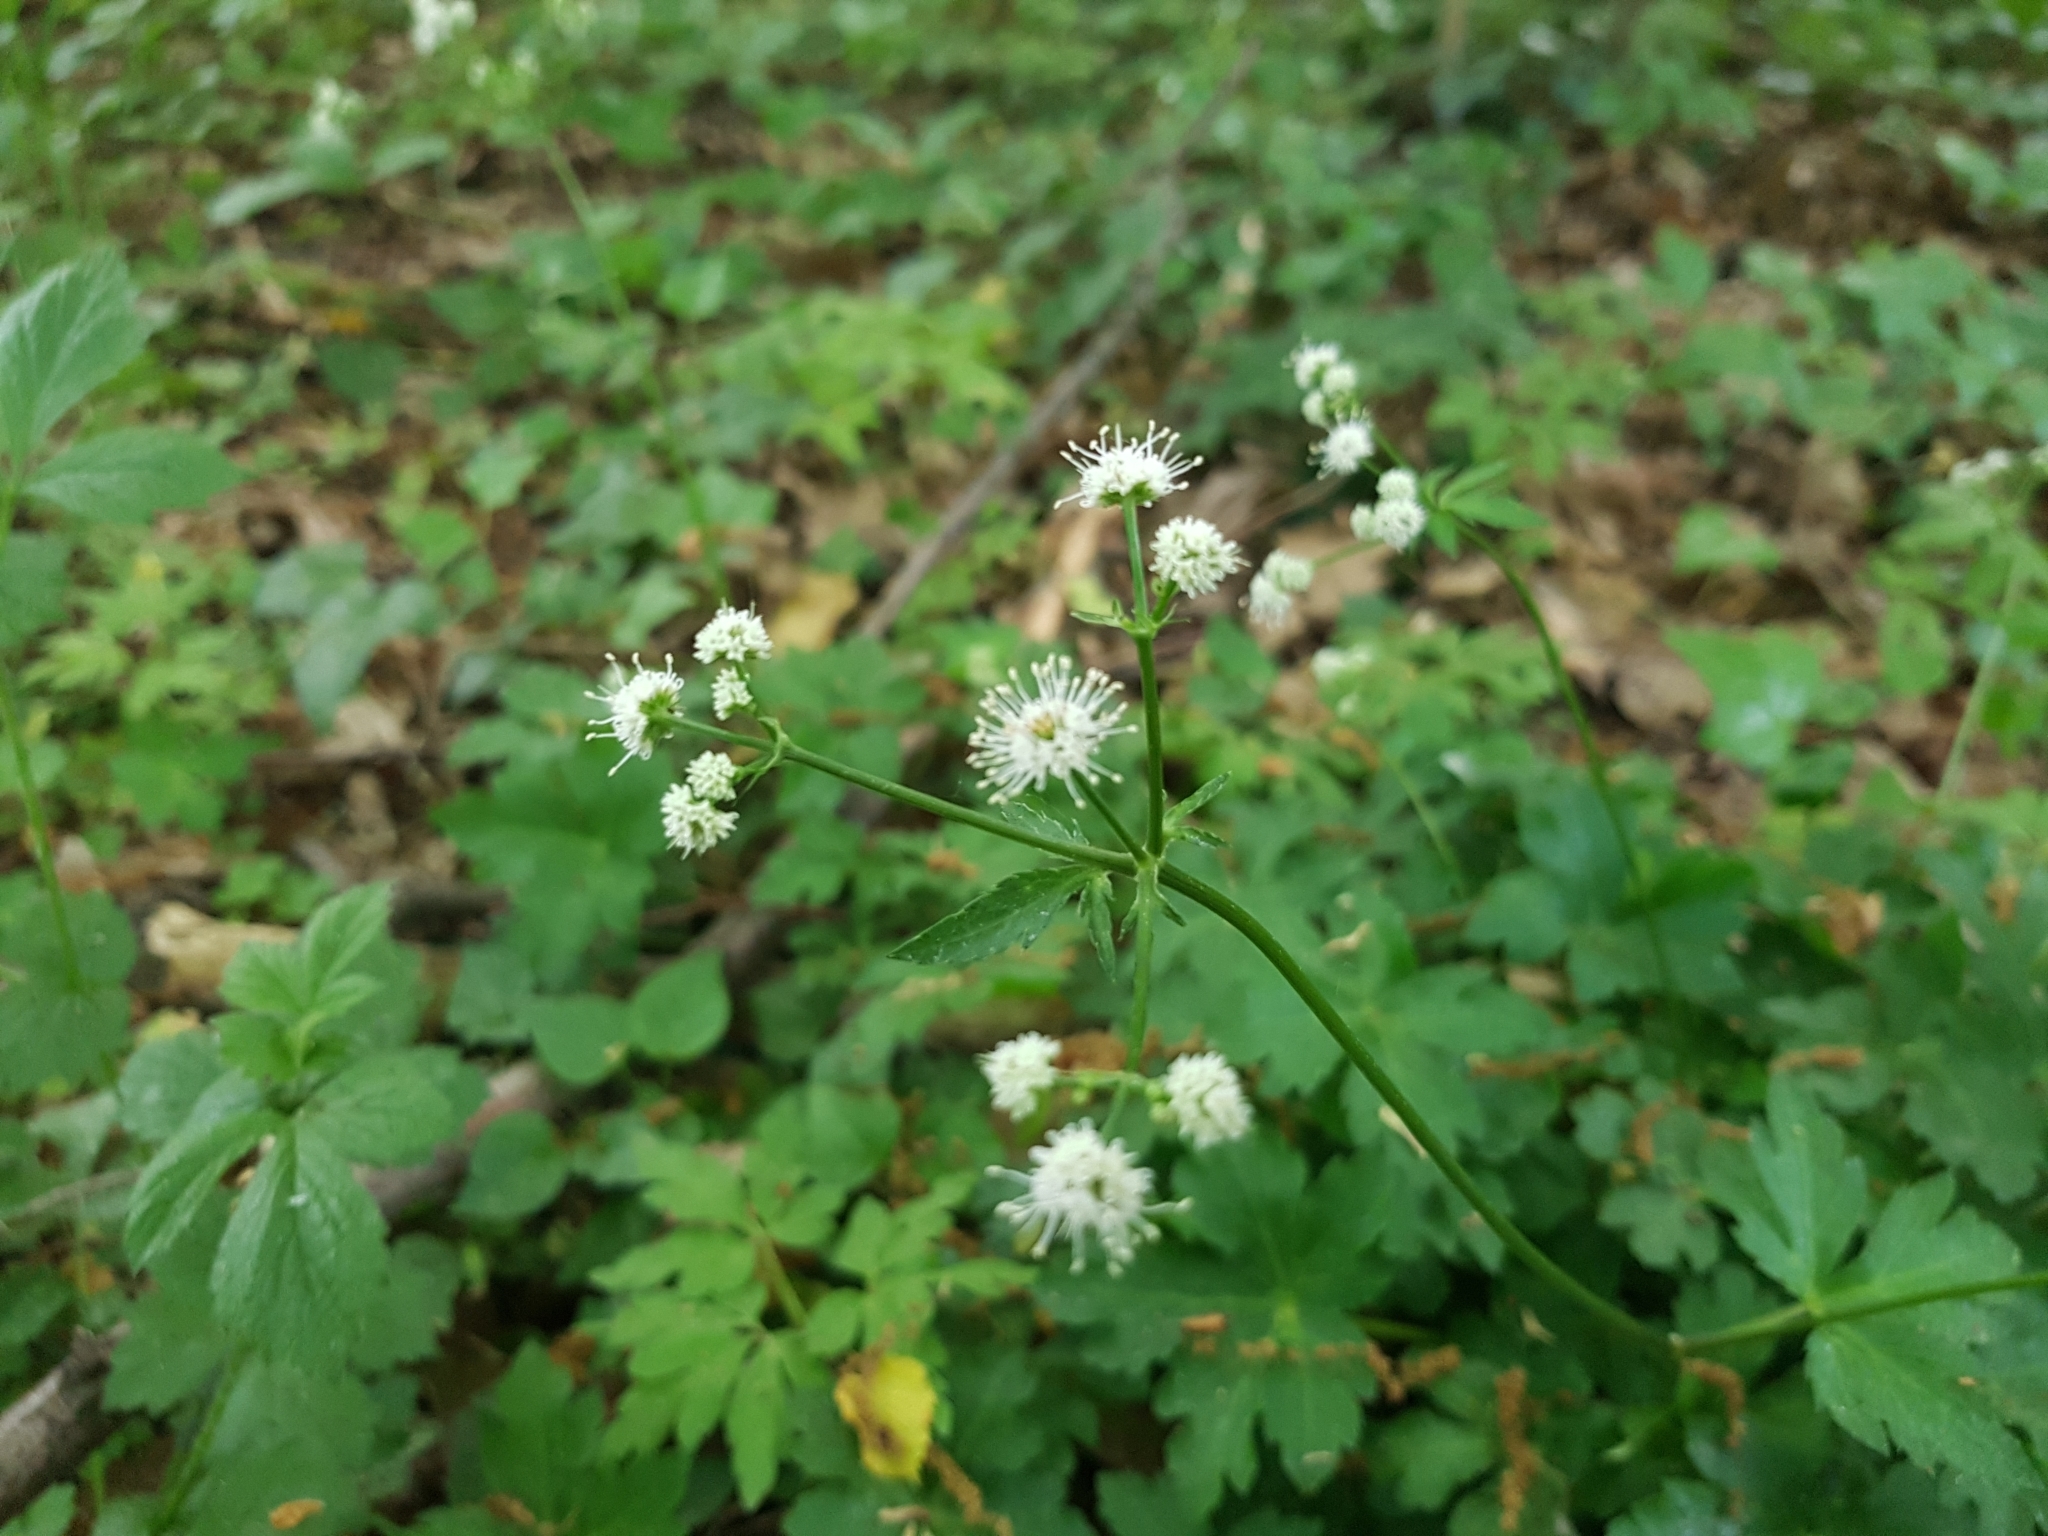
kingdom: Plantae
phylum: Tracheophyta
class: Magnoliopsida
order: Apiales
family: Apiaceae
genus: Sanicula
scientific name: Sanicula europaea
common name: Sanicle
